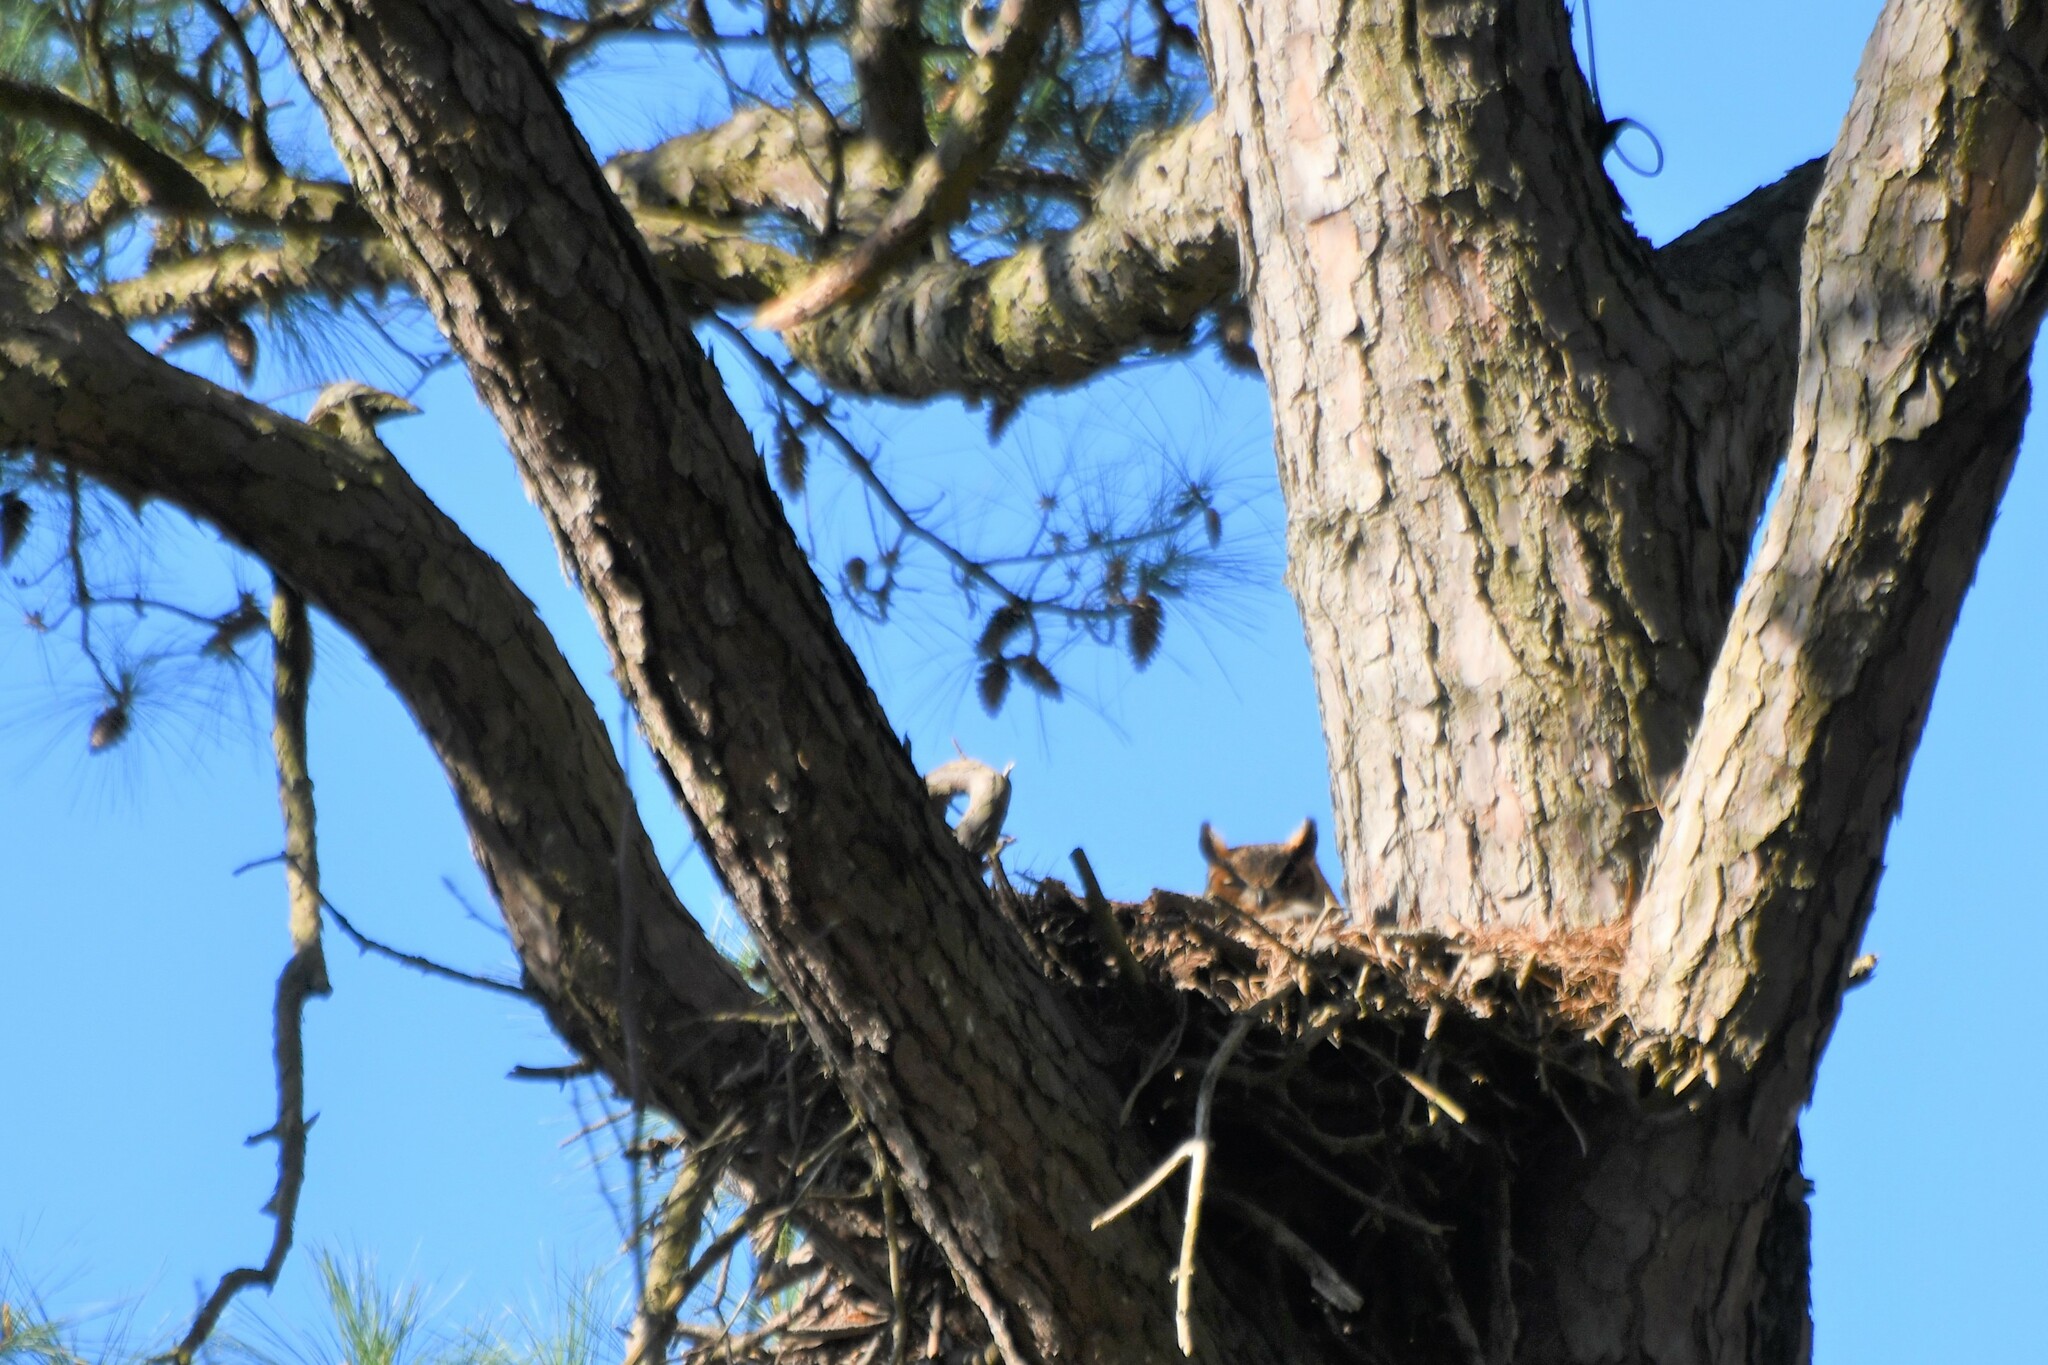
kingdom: Animalia
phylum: Chordata
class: Aves
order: Strigiformes
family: Strigidae
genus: Bubo
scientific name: Bubo virginianus
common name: Great horned owl
